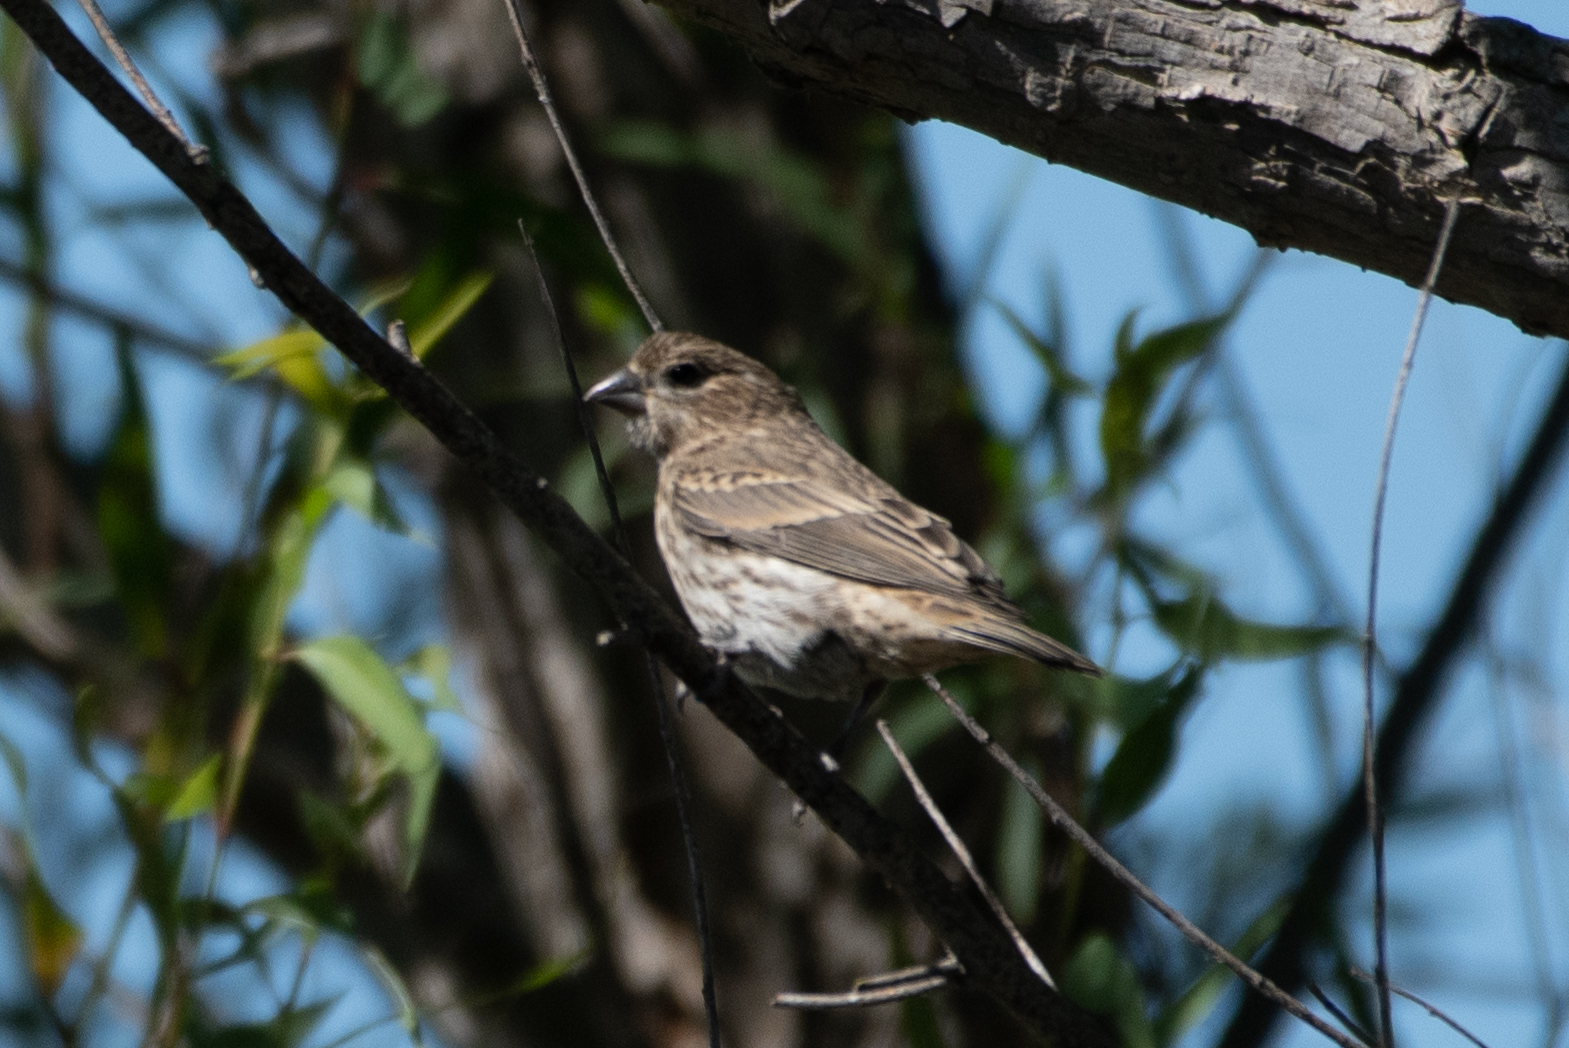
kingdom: Animalia
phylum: Chordata
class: Aves
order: Passeriformes
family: Fringillidae
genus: Haemorhous
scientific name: Haemorhous mexicanus
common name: House finch
